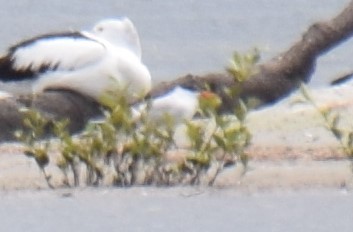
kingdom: Animalia
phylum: Chordata
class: Aves
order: Charadriiformes
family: Laridae
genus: Hydroprogne
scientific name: Hydroprogne caspia
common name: Caspian tern
